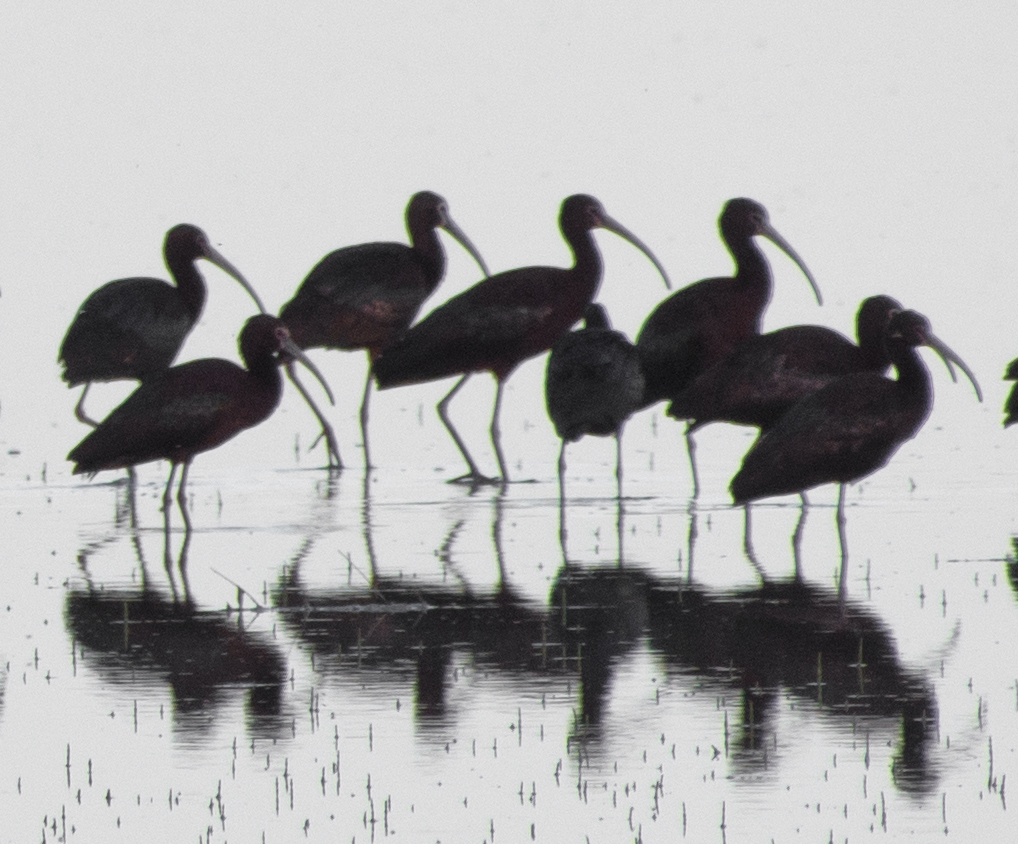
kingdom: Animalia
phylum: Chordata
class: Aves
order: Pelecaniformes
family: Threskiornithidae
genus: Plegadis
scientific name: Plegadis chihi
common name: White-faced ibis
